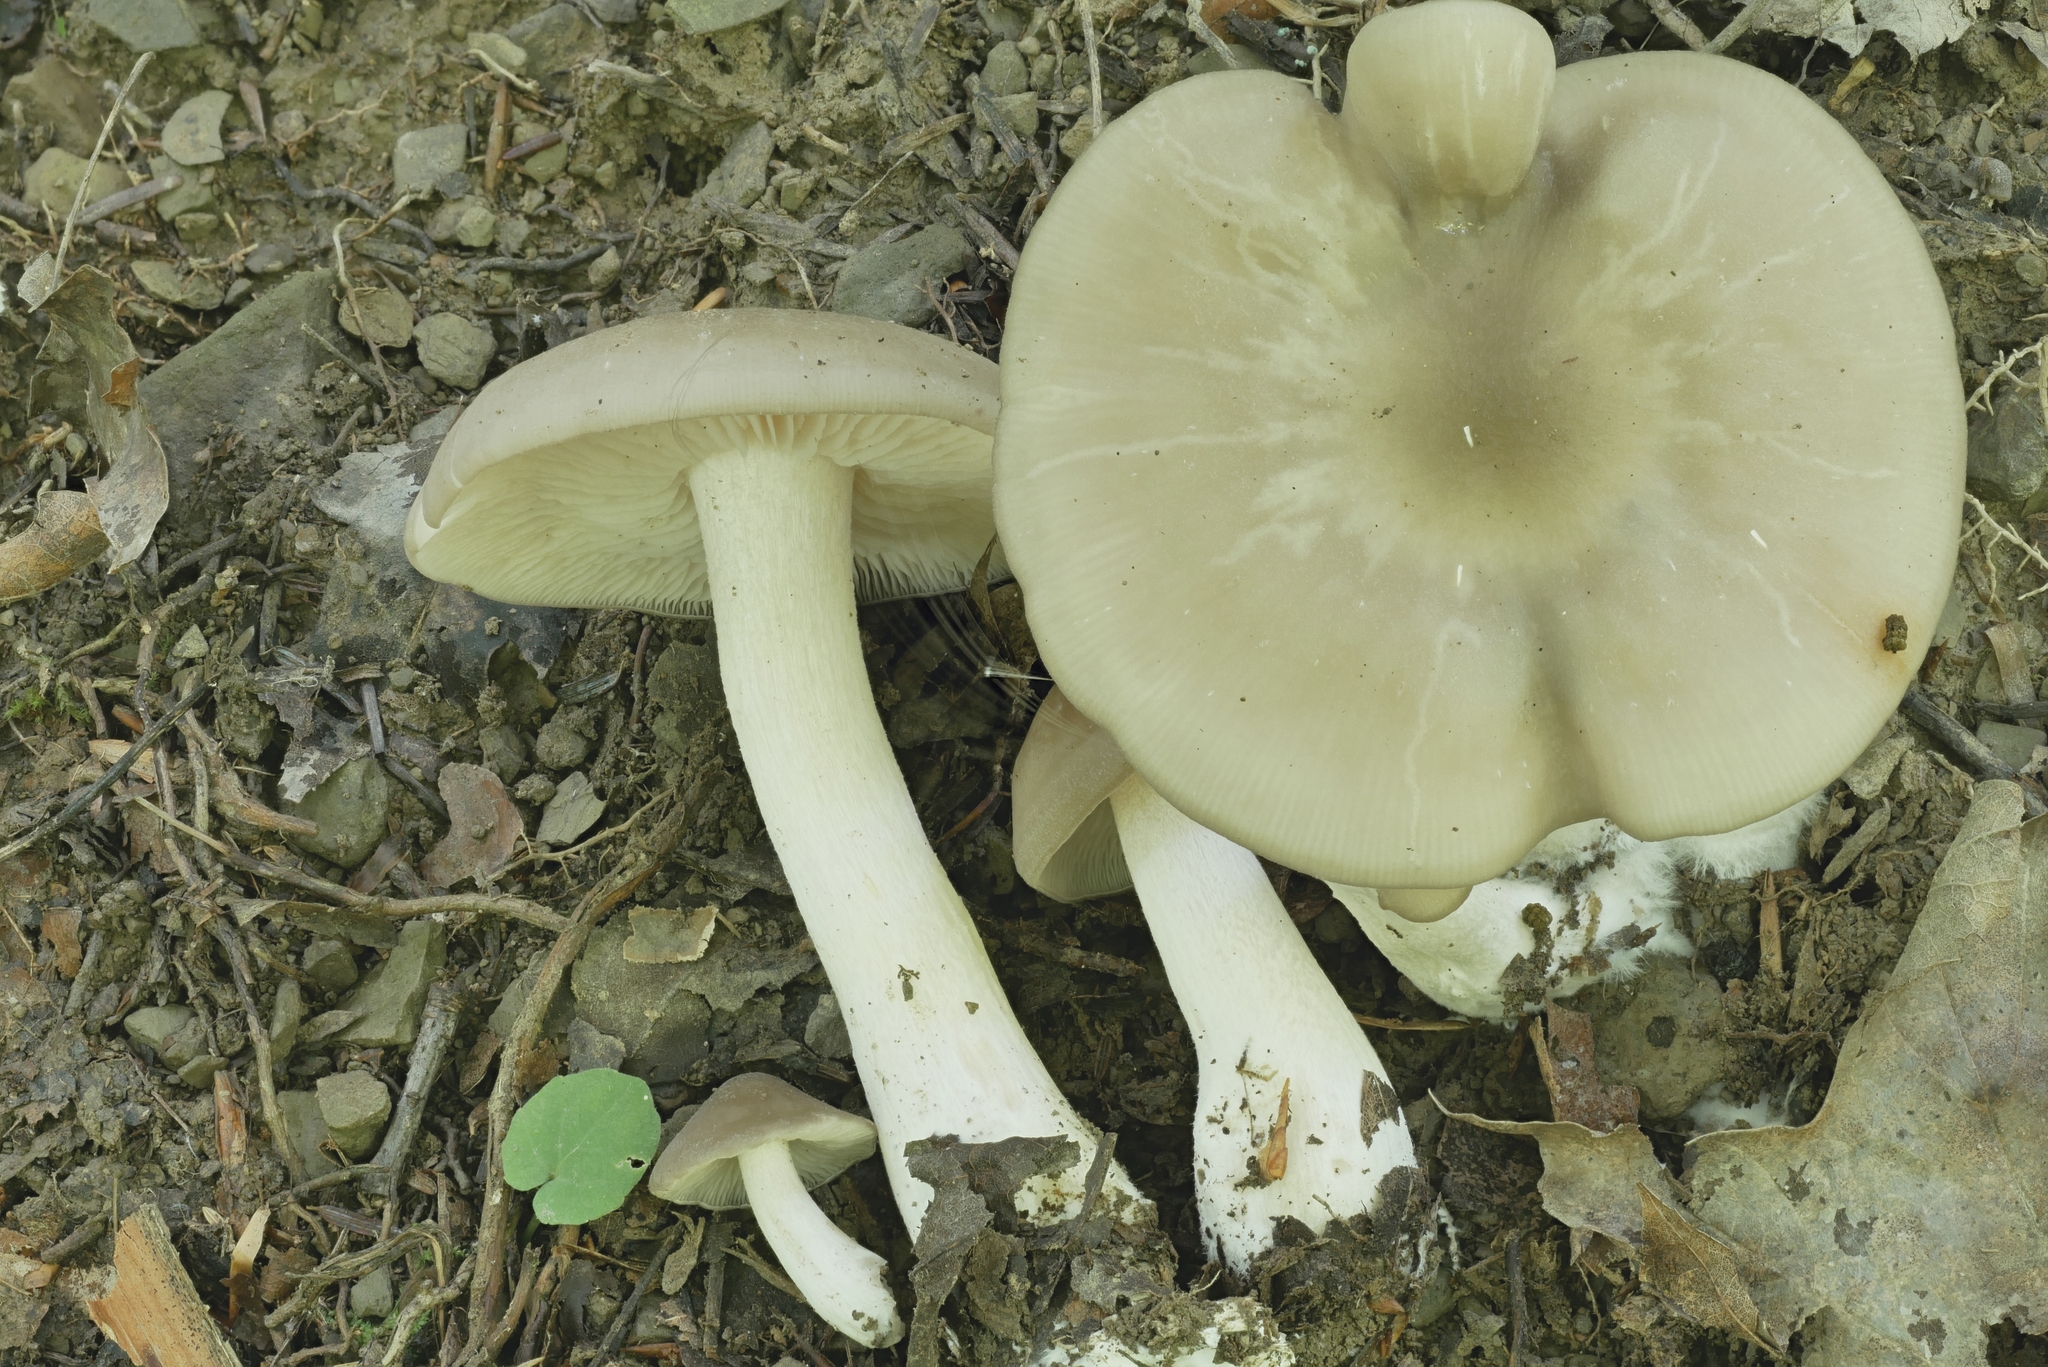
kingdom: Fungi
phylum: Basidiomycota
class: Agaricomycetes
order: Agaricales
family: Entolomataceae
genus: Entoloma
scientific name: Entoloma rhodopolium
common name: Wood pinkgill
